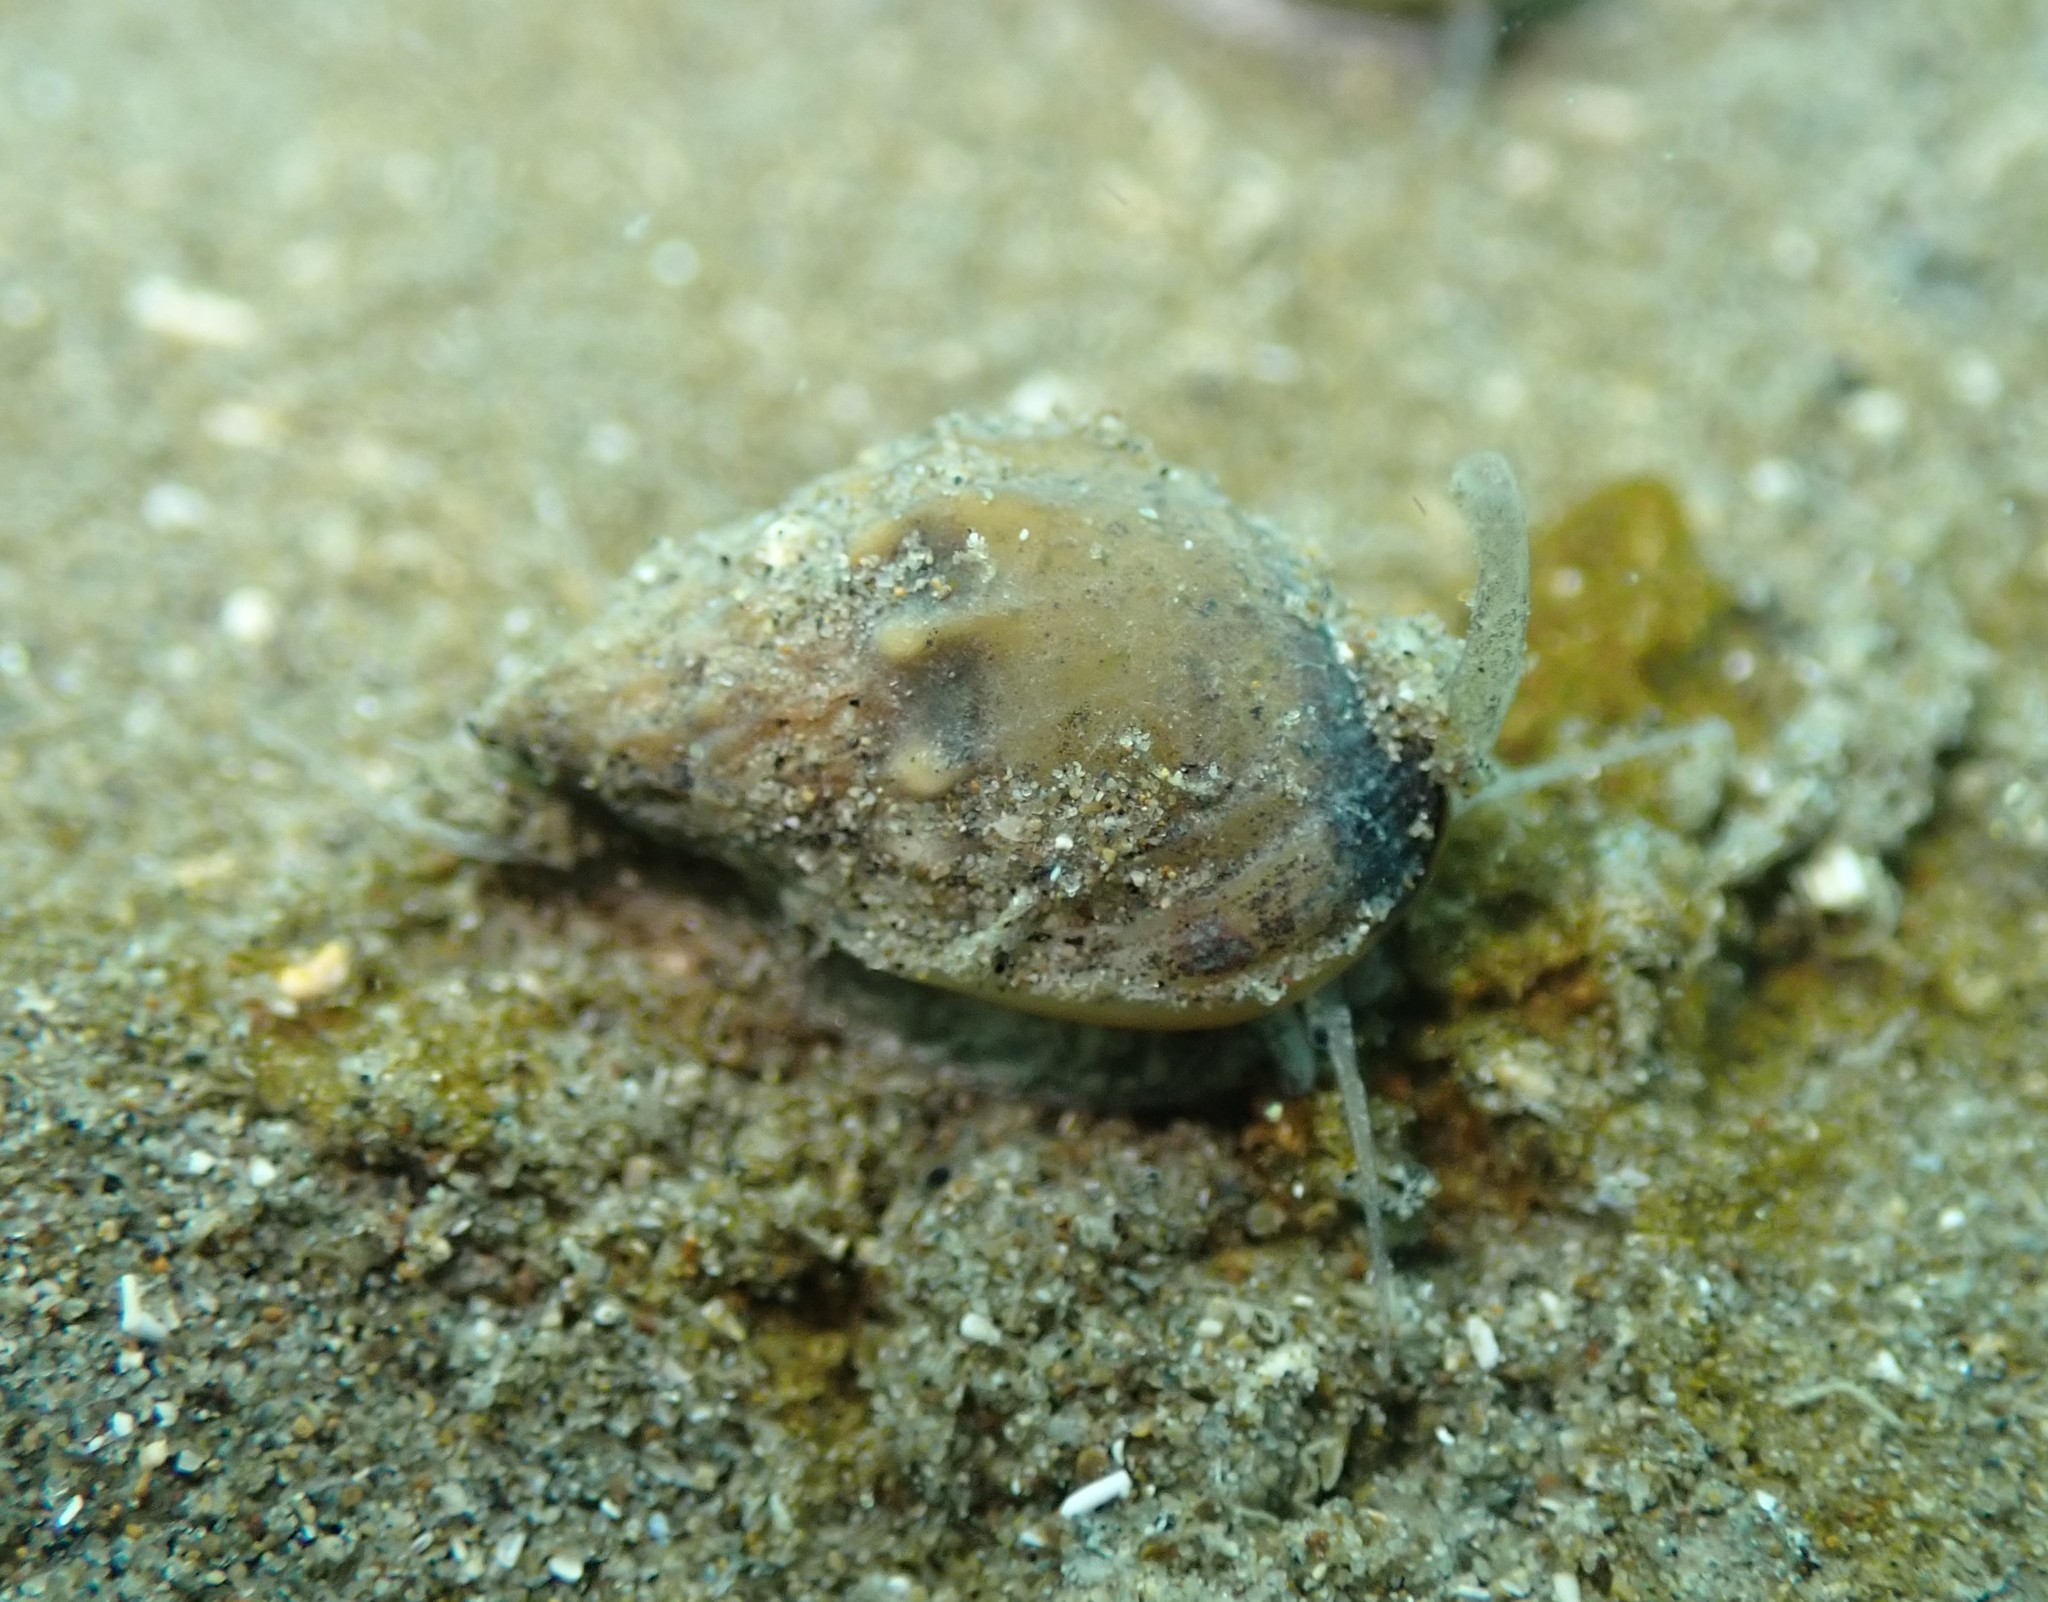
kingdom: Animalia
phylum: Mollusca
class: Gastropoda
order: Neogastropoda
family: Nassariidae
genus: Tritia
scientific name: Tritia burchardi
